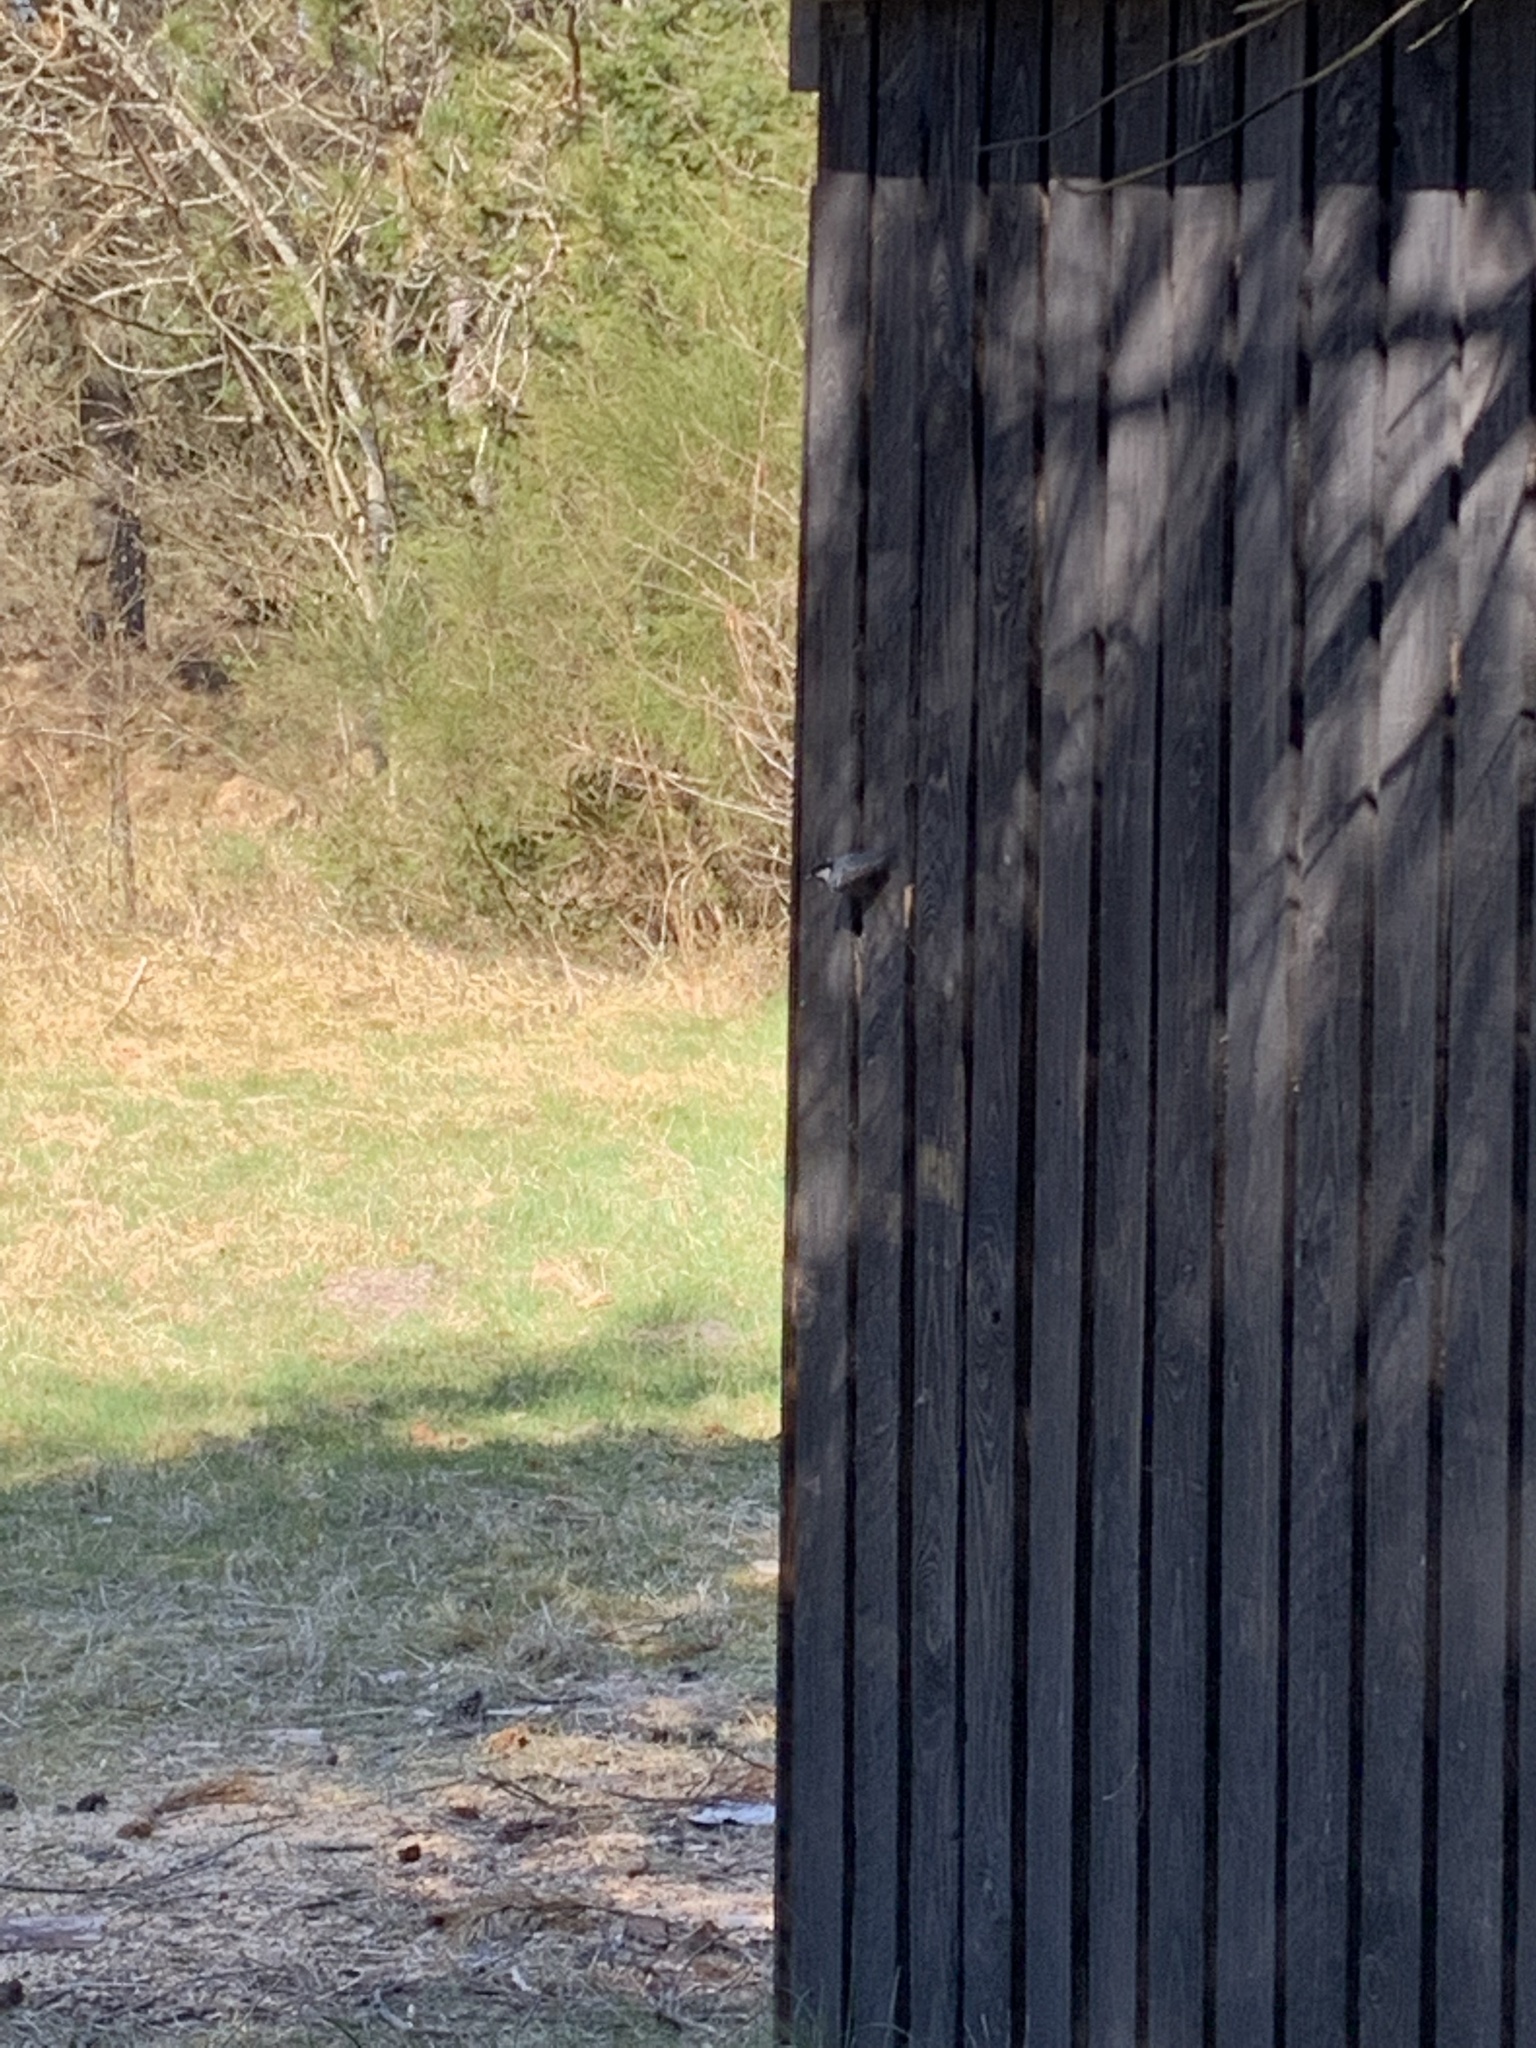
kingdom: Animalia
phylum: Chordata
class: Aves
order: Passeriformes
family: Paridae
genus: Periparus
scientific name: Periparus ater
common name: Coal tit
